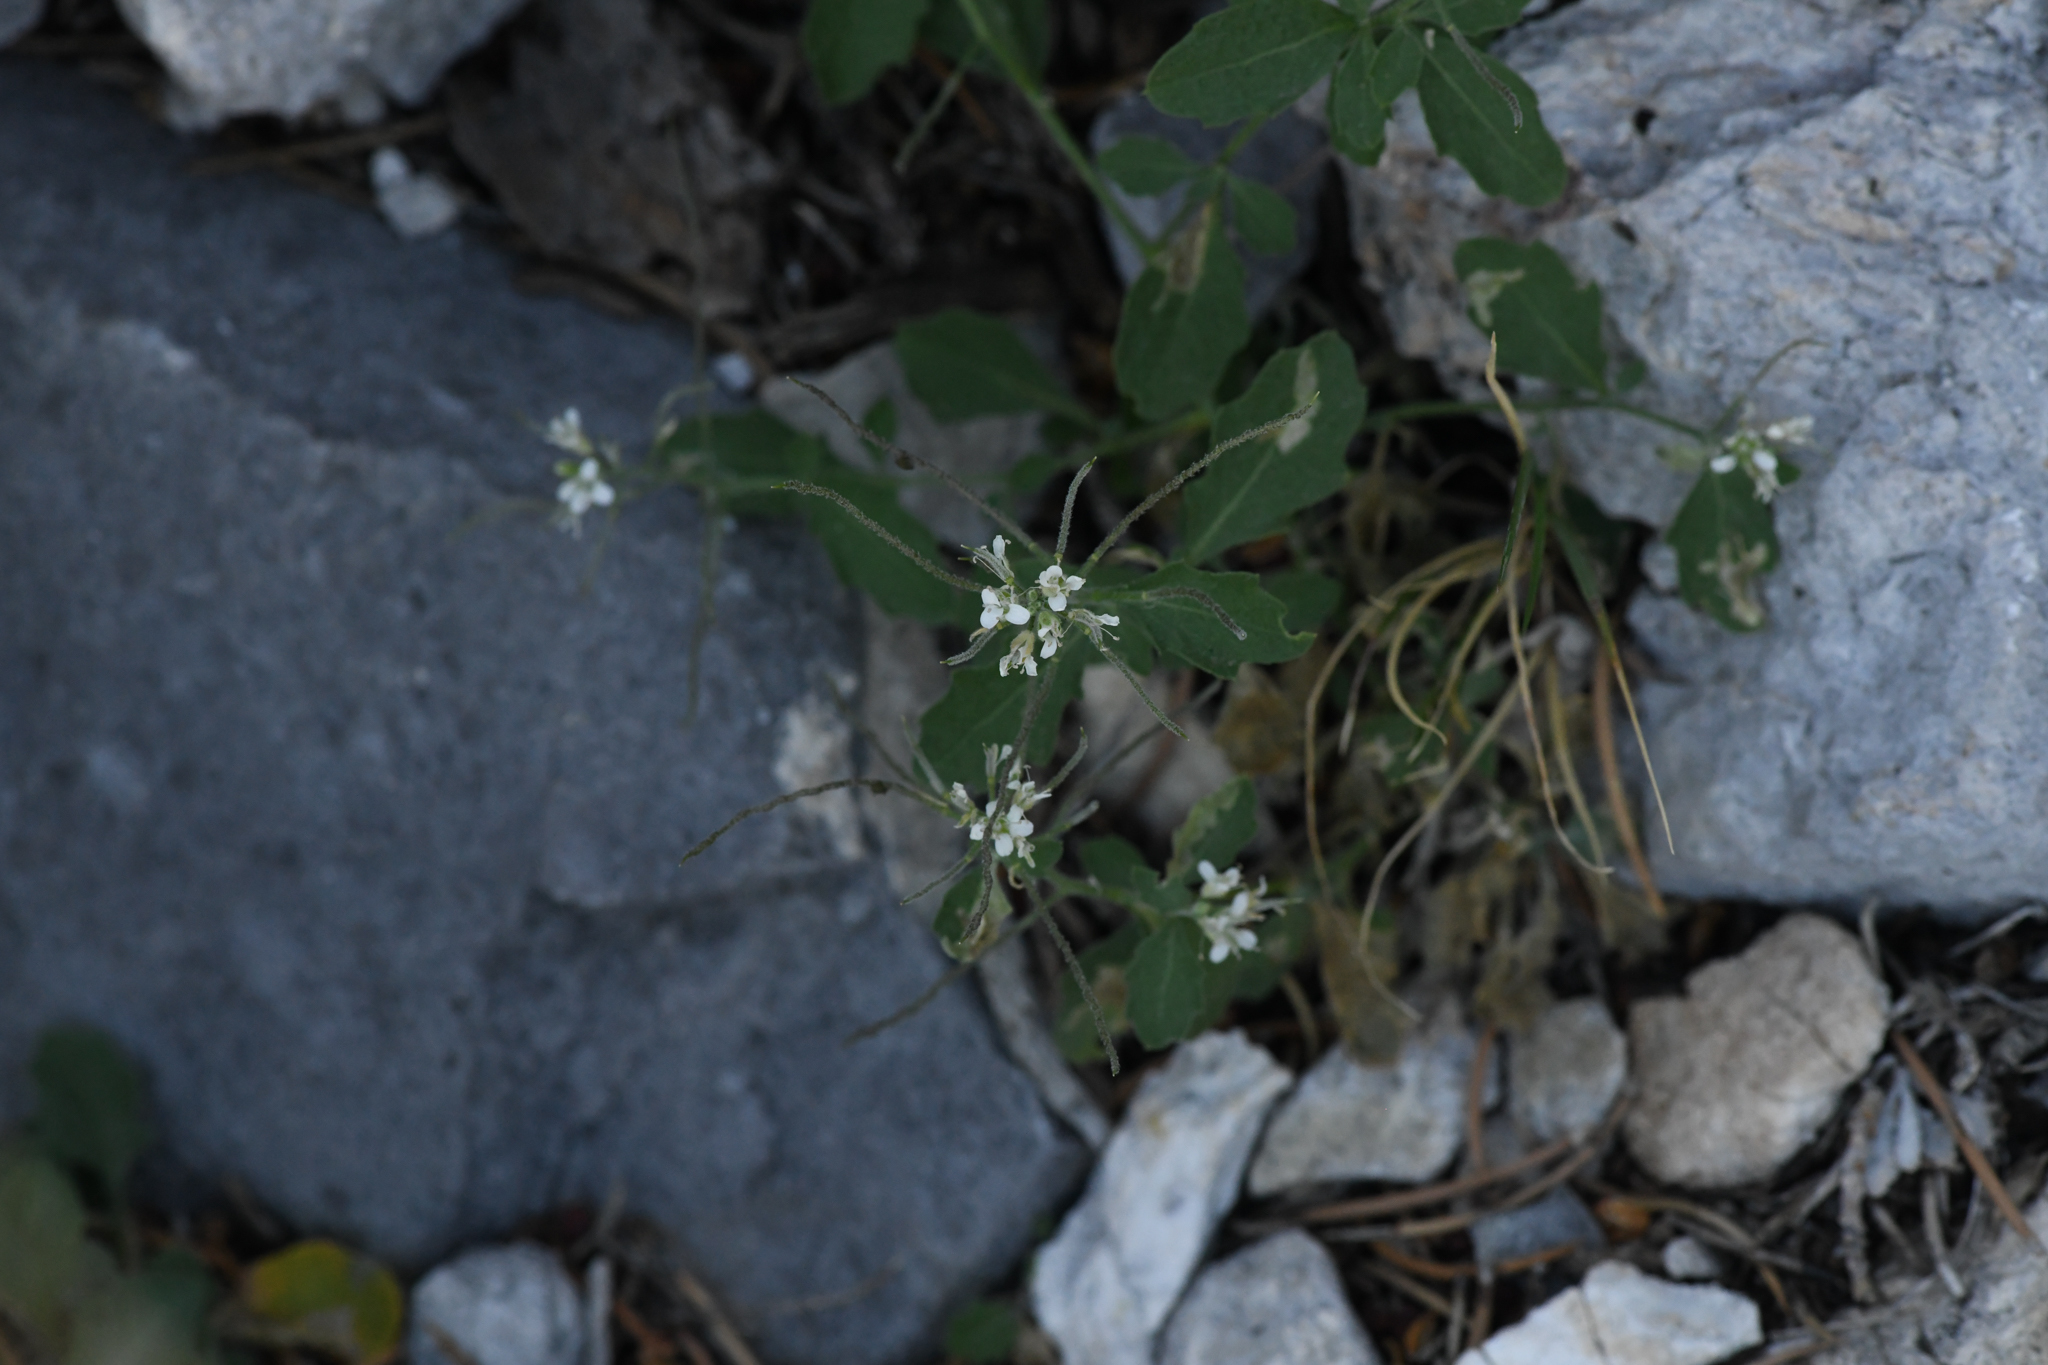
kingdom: Plantae
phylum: Tracheophyta
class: Magnoliopsida
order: Brassicales
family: Brassicaceae
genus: Halimolobos
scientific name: Halimolobos jaegeri
